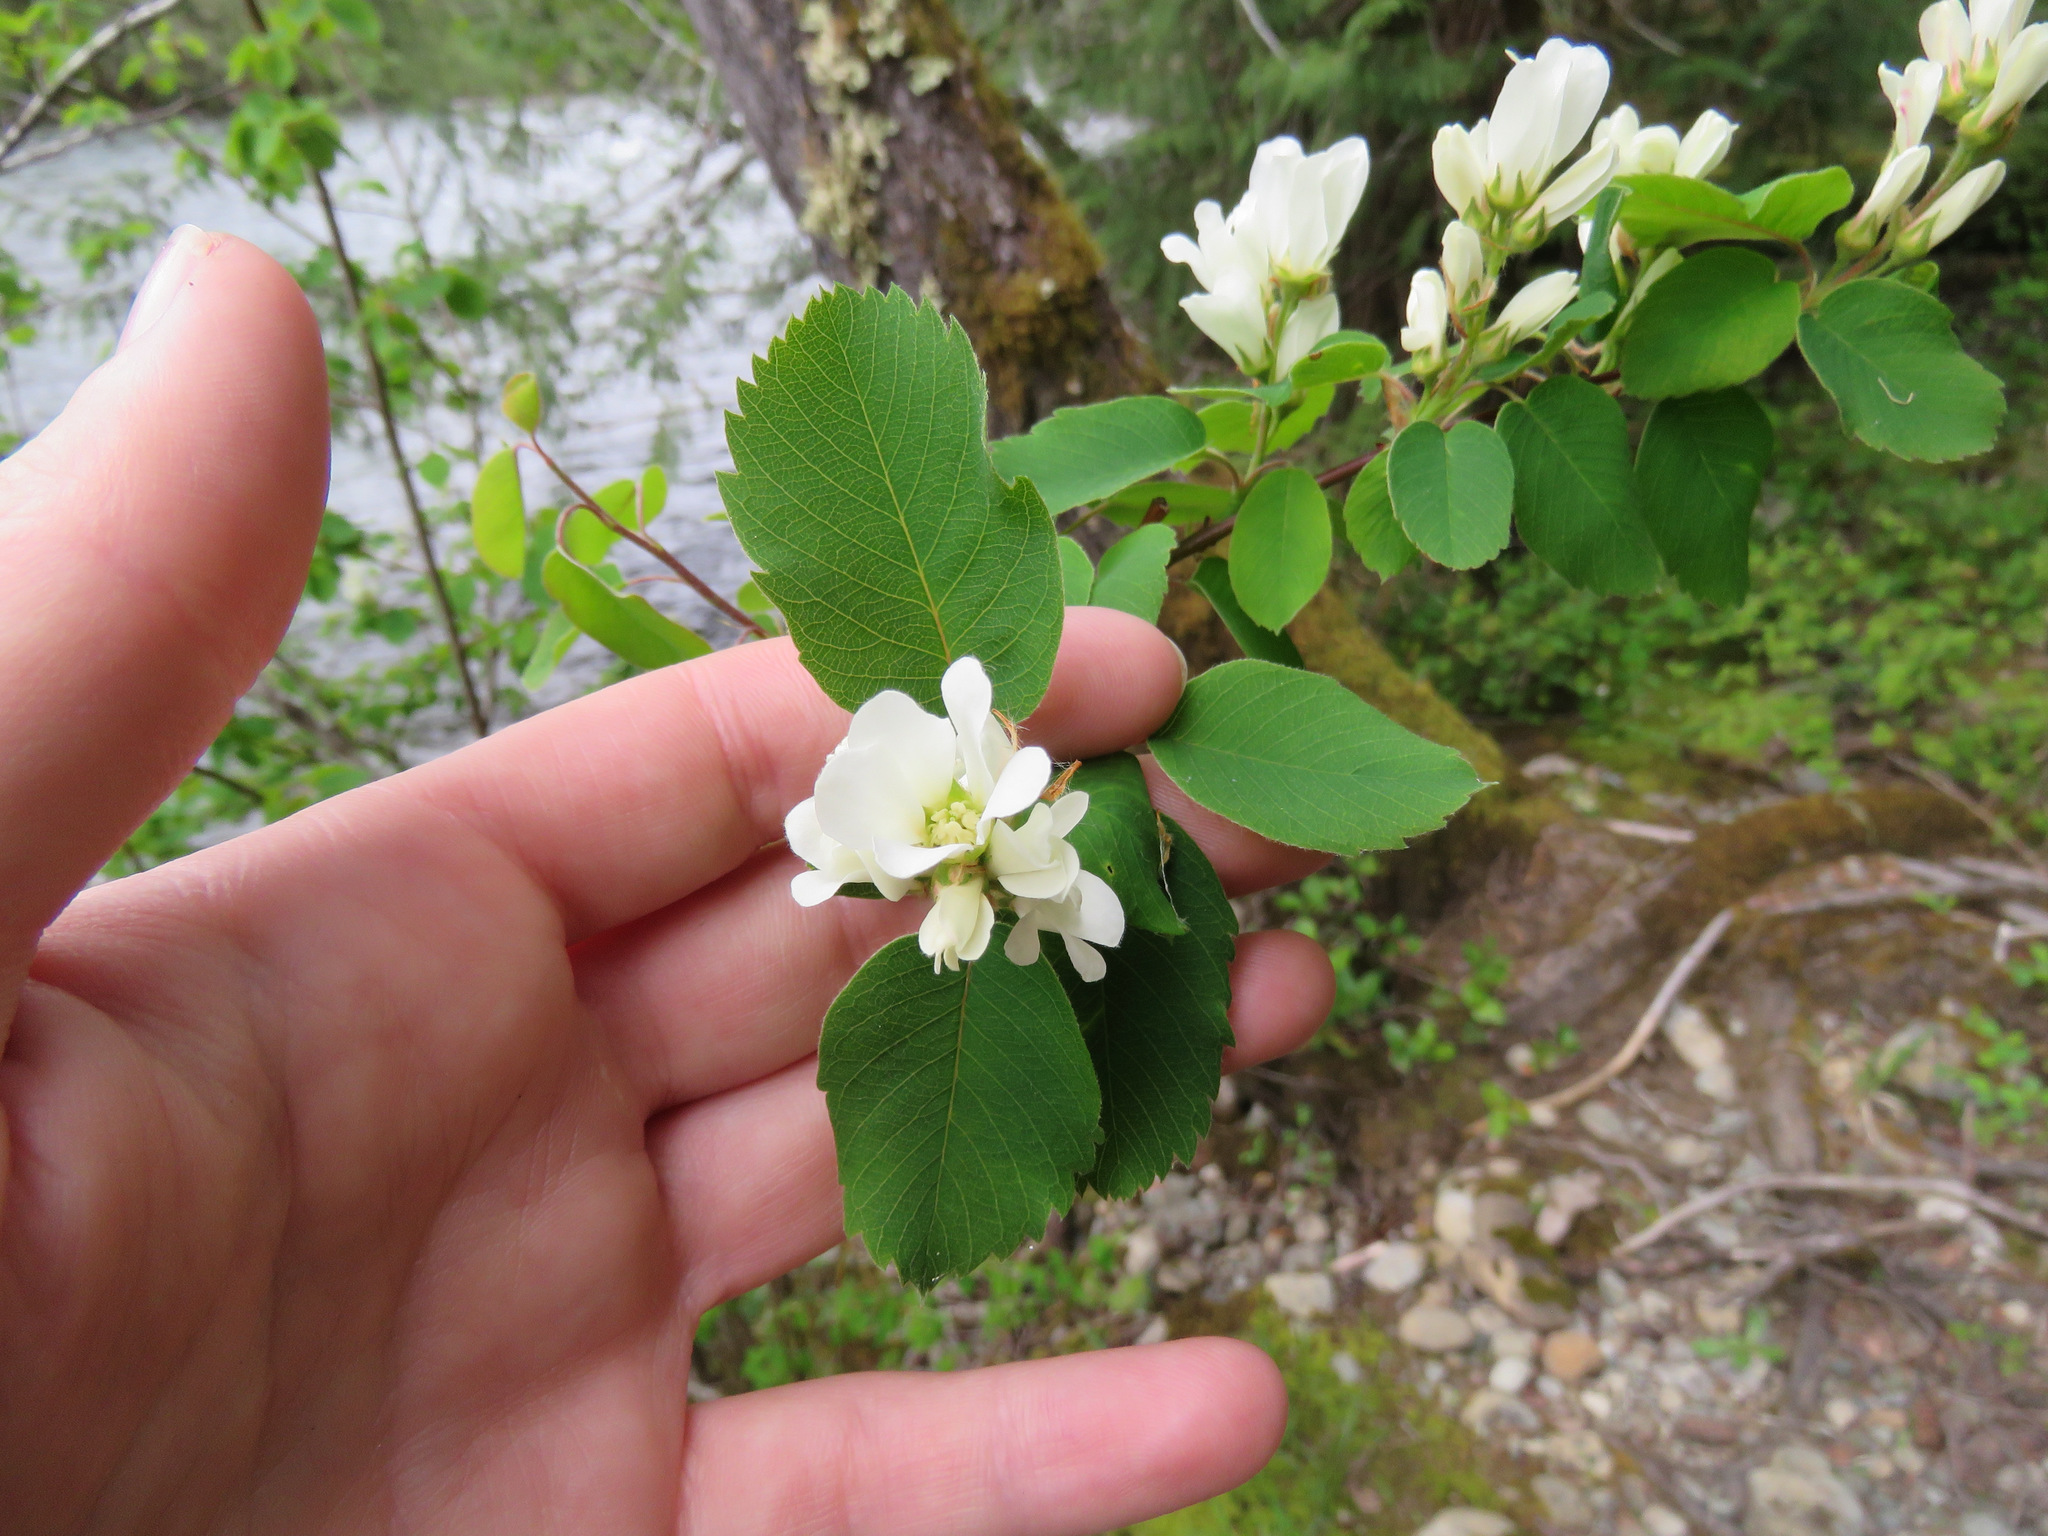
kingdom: Plantae
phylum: Tracheophyta
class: Magnoliopsida
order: Rosales
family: Rosaceae
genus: Amelanchier
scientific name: Amelanchier alnifolia
